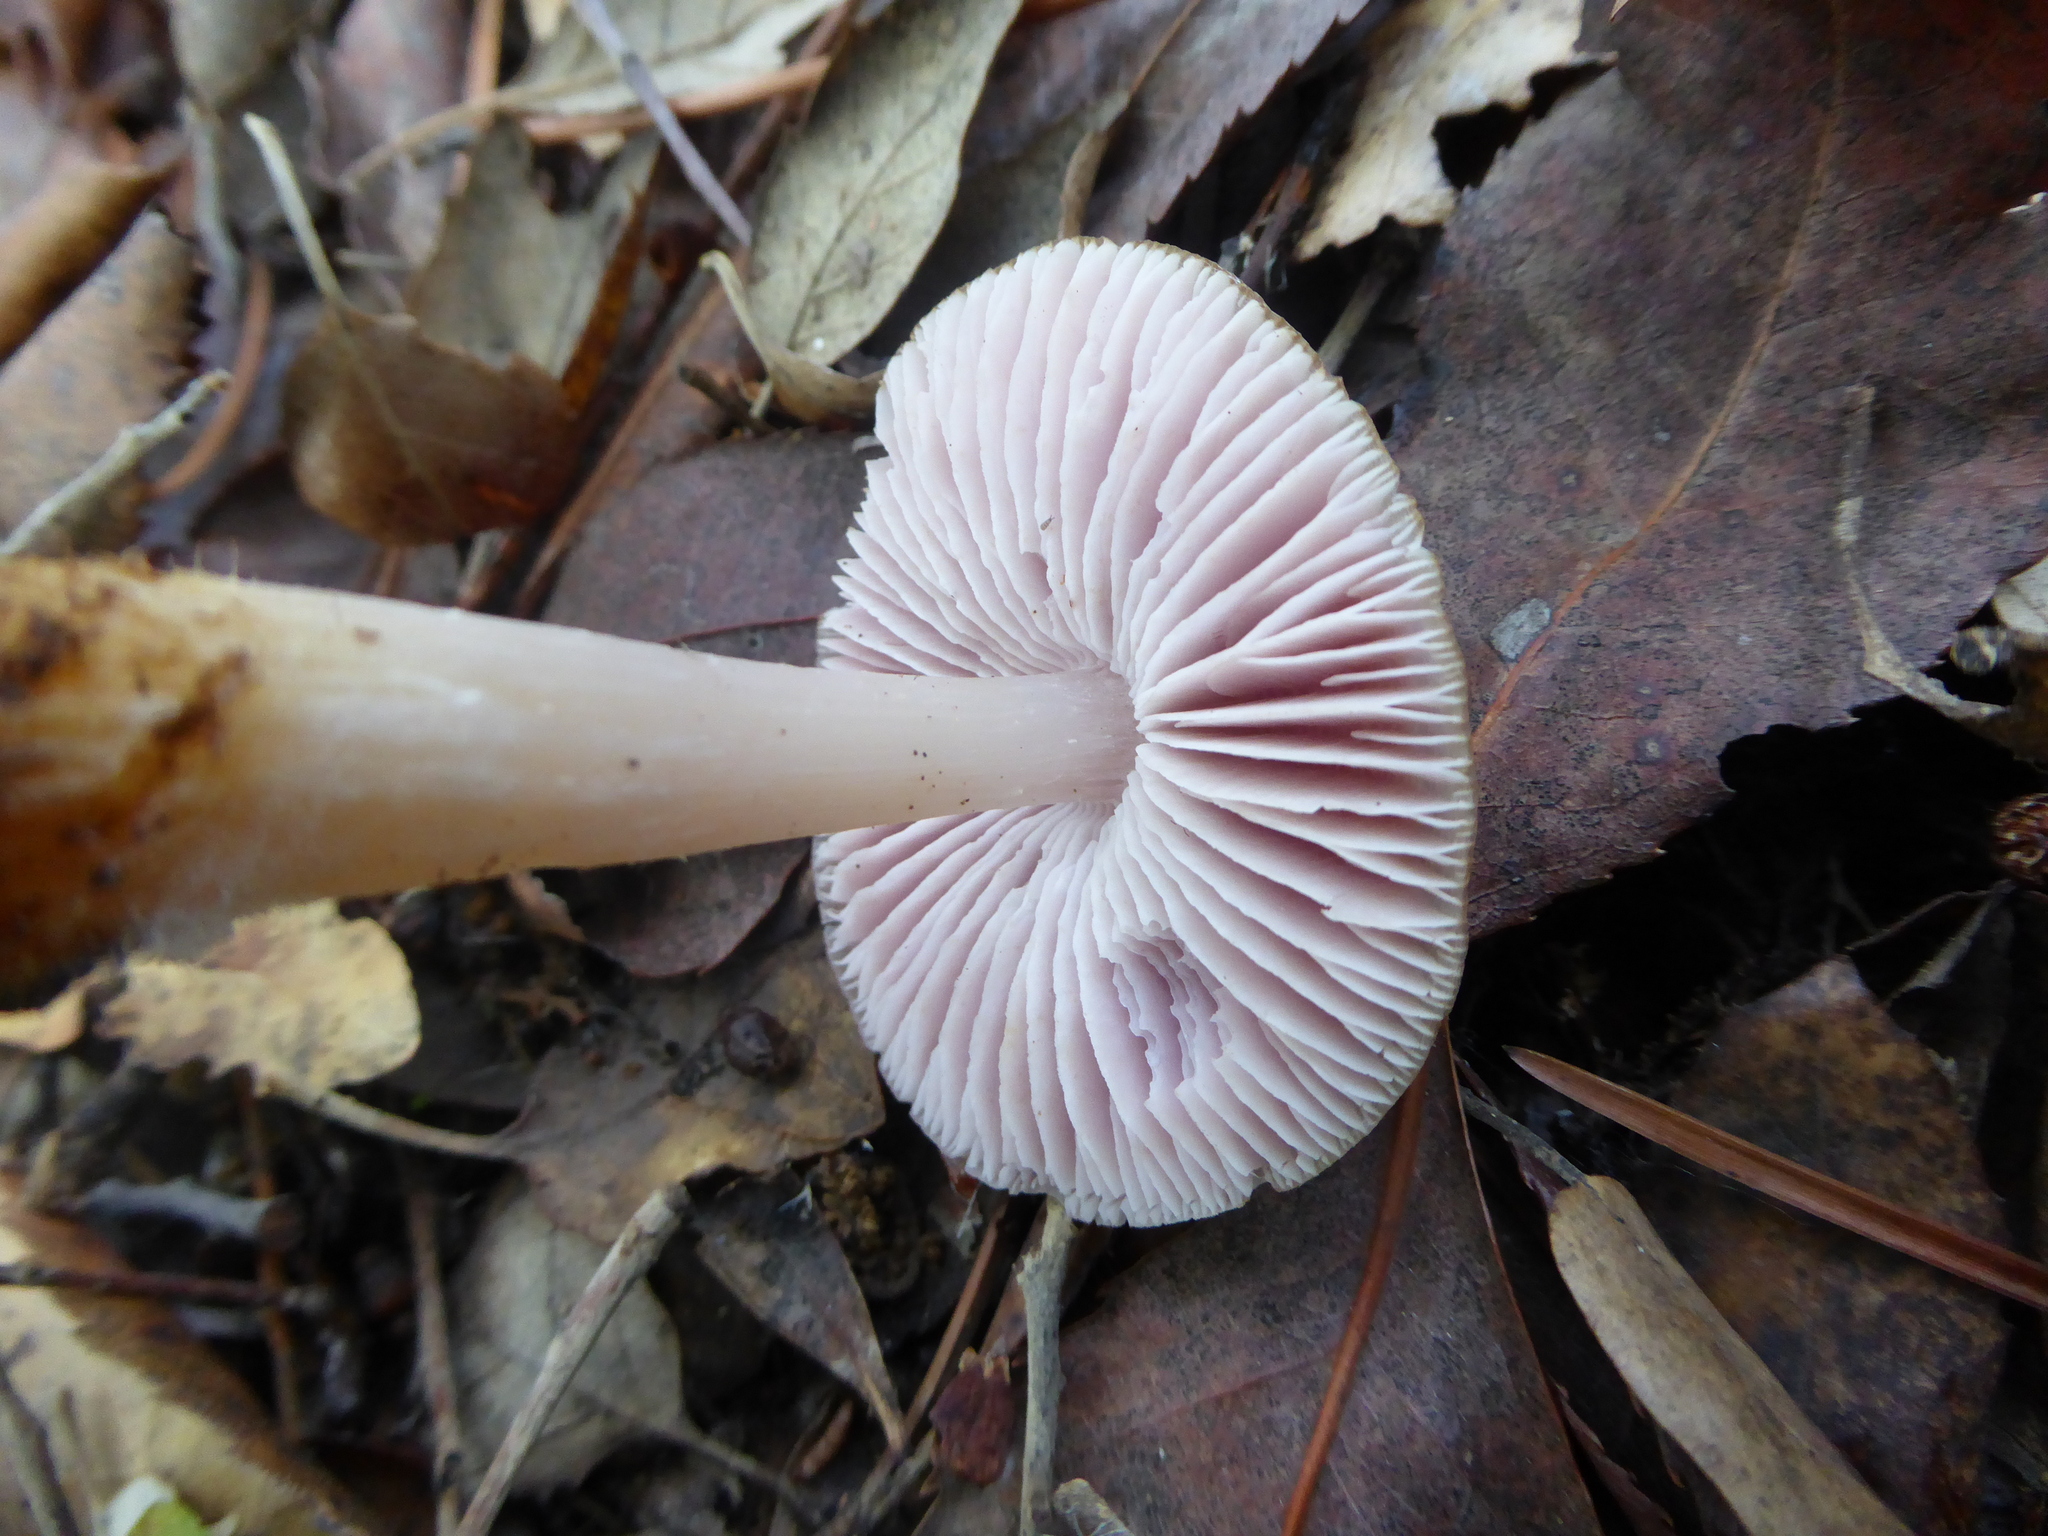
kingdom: Fungi
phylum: Basidiomycota
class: Agaricomycetes
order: Agaricales
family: Mycenaceae
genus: Mycena
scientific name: Mycena rosea
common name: Rosy bonnet
